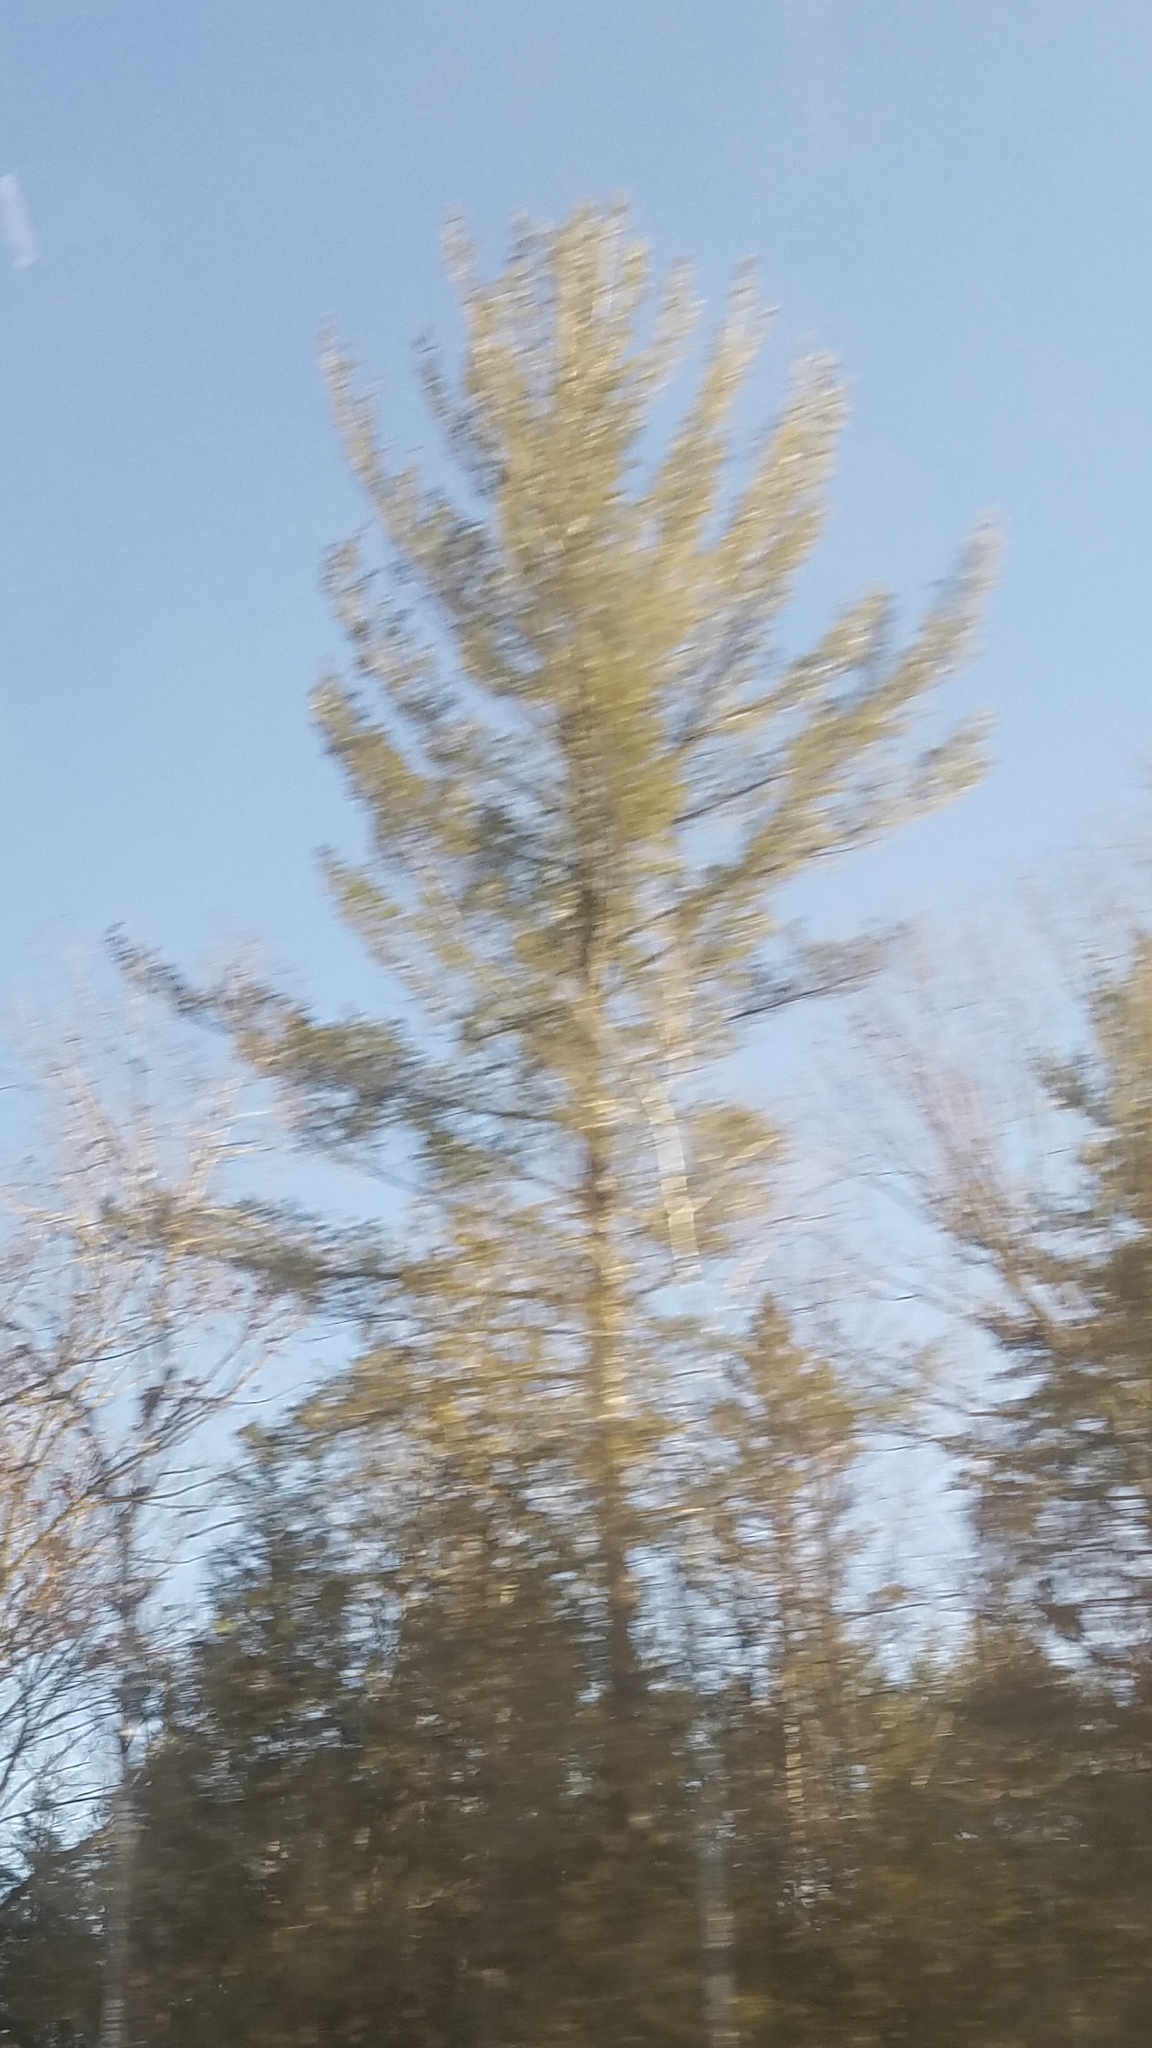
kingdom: Plantae
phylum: Tracheophyta
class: Pinopsida
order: Pinales
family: Pinaceae
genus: Pinus
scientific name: Pinus strobus
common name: Weymouth pine
